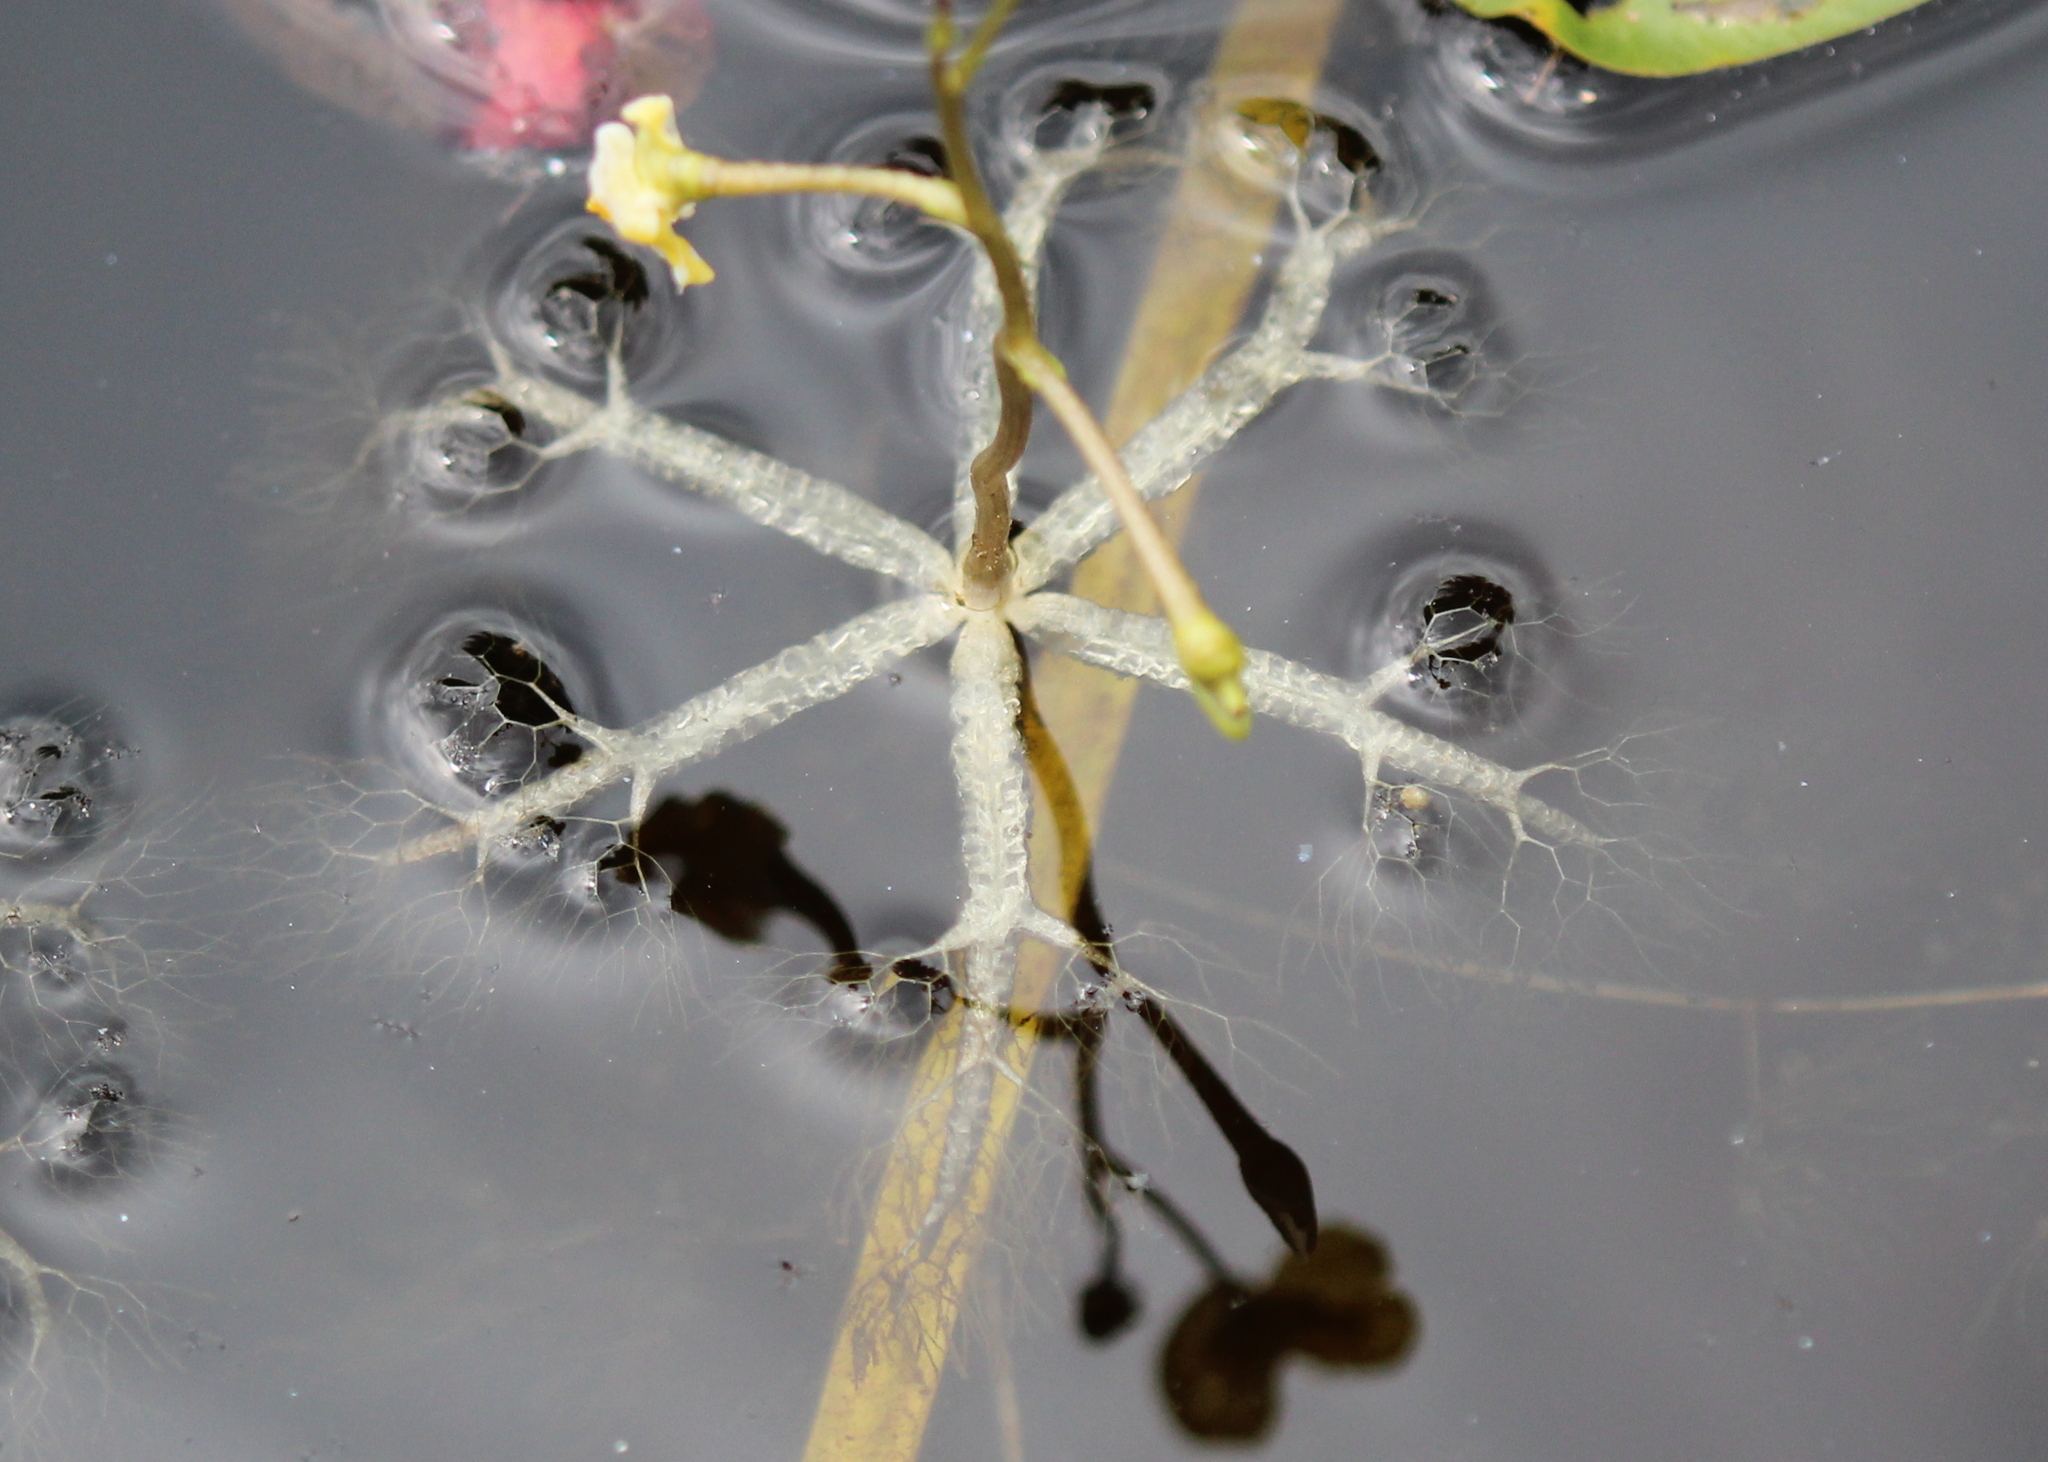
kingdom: Plantae
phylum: Tracheophyta
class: Magnoliopsida
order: Lamiales
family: Lentibulariaceae
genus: Utricularia
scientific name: Utricularia radiata
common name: Floating bladderwort
